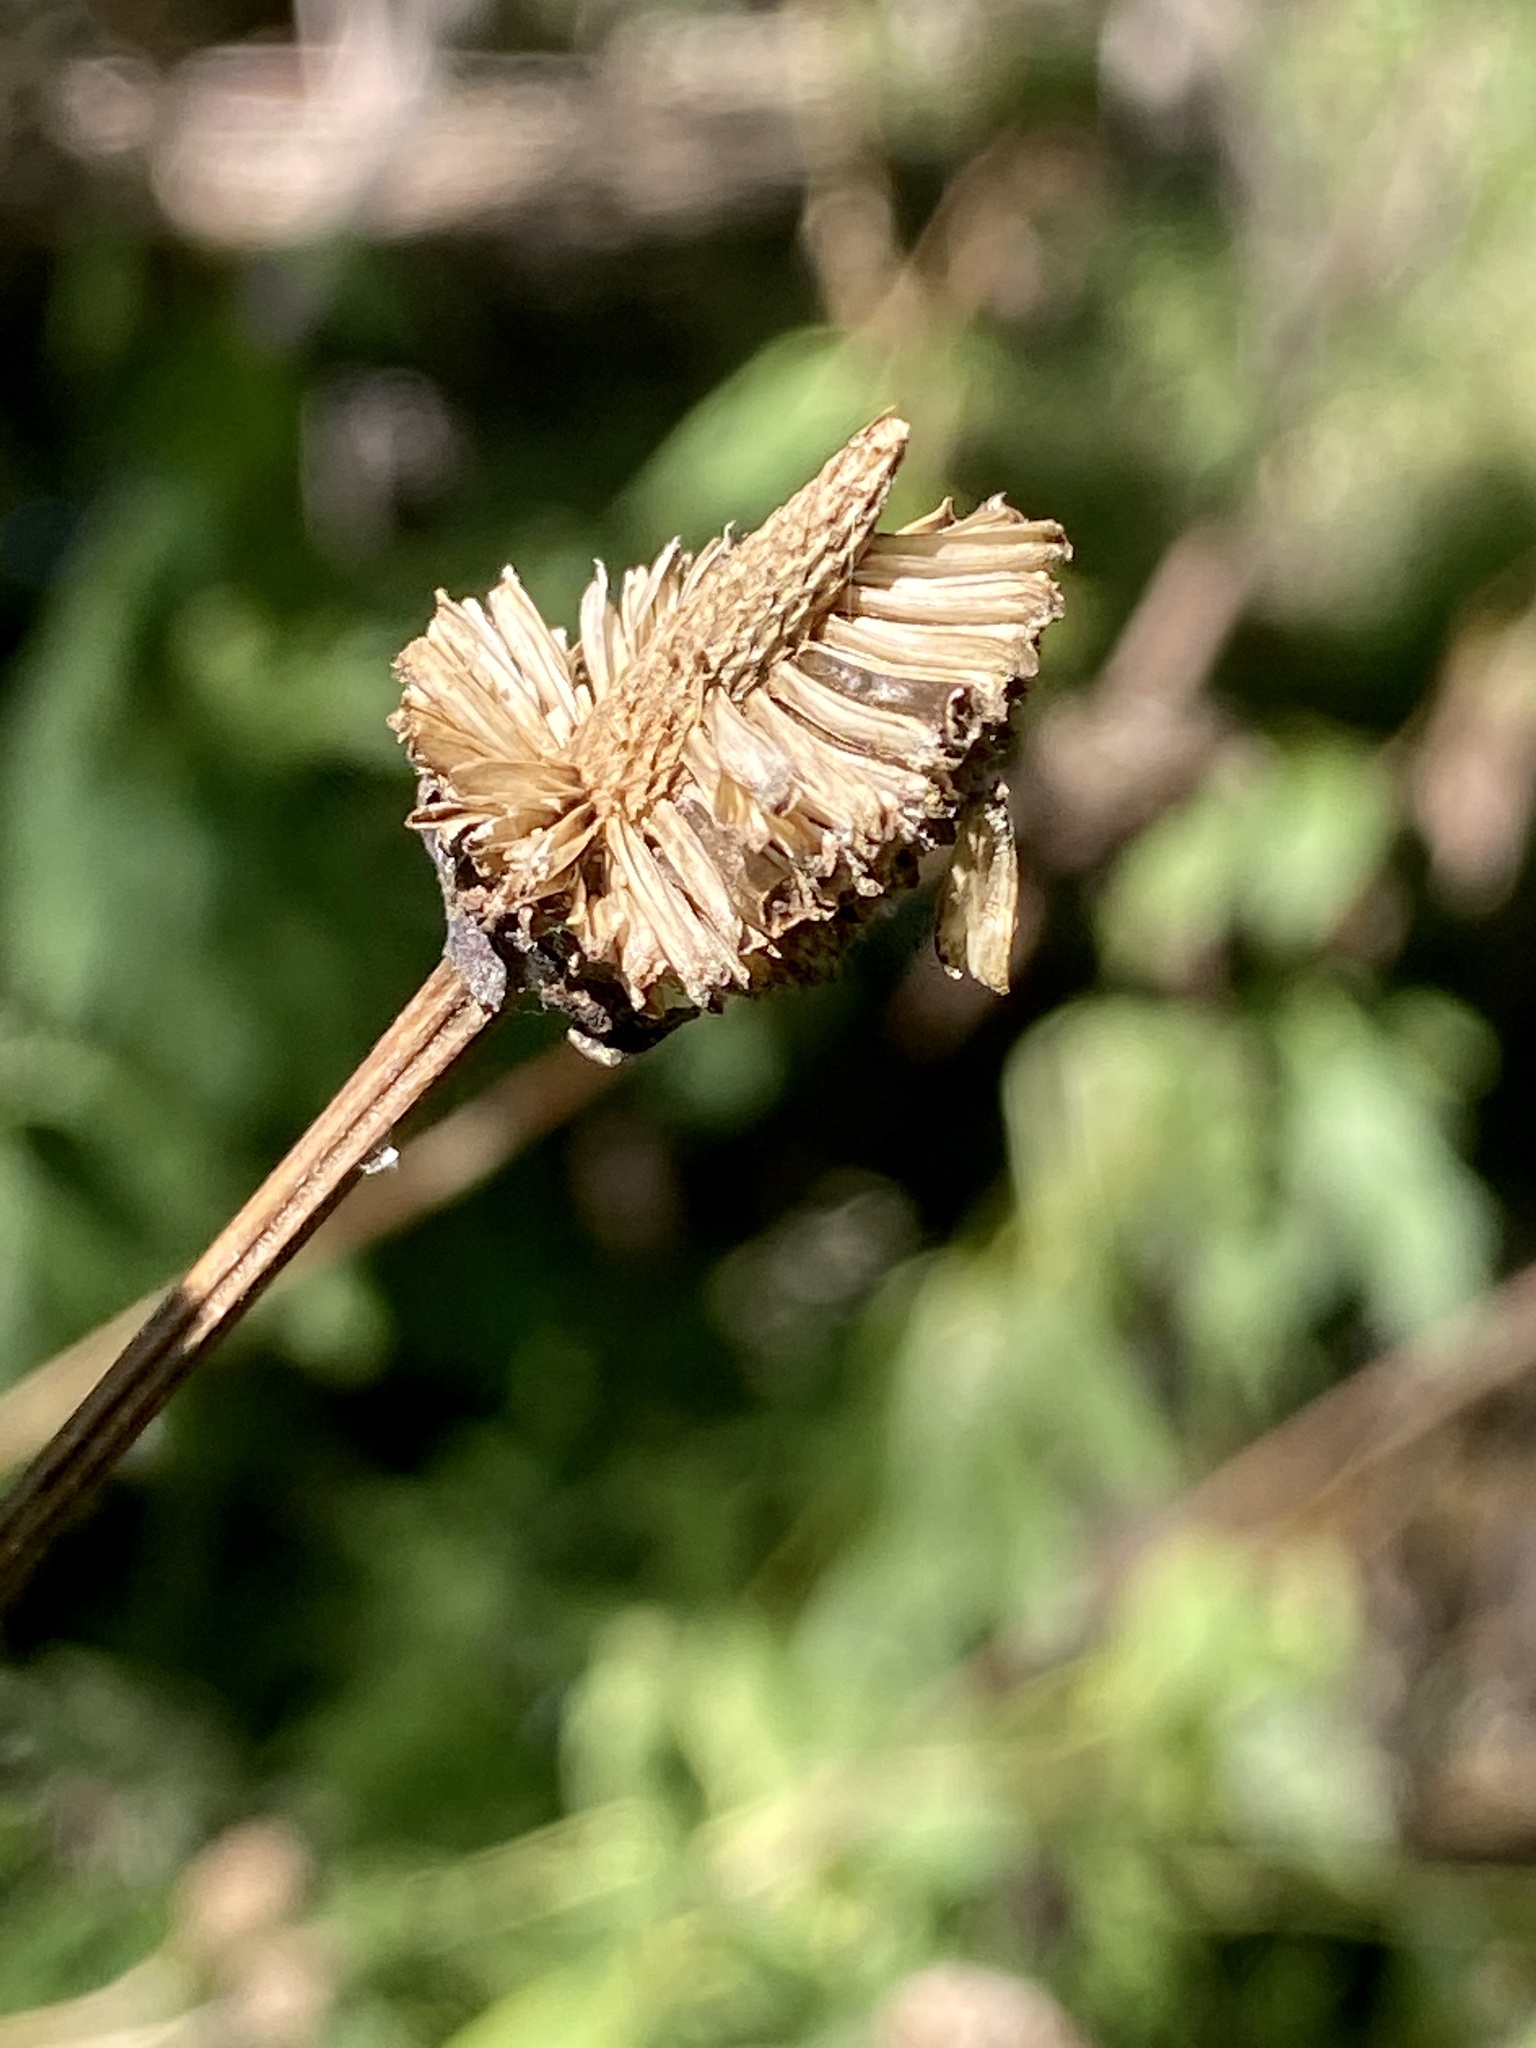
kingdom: Plantae
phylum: Tracheophyta
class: Magnoliopsida
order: Asterales
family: Asteraceae
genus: Rudbeckia
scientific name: Rudbeckia laciniata
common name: Coneflower
